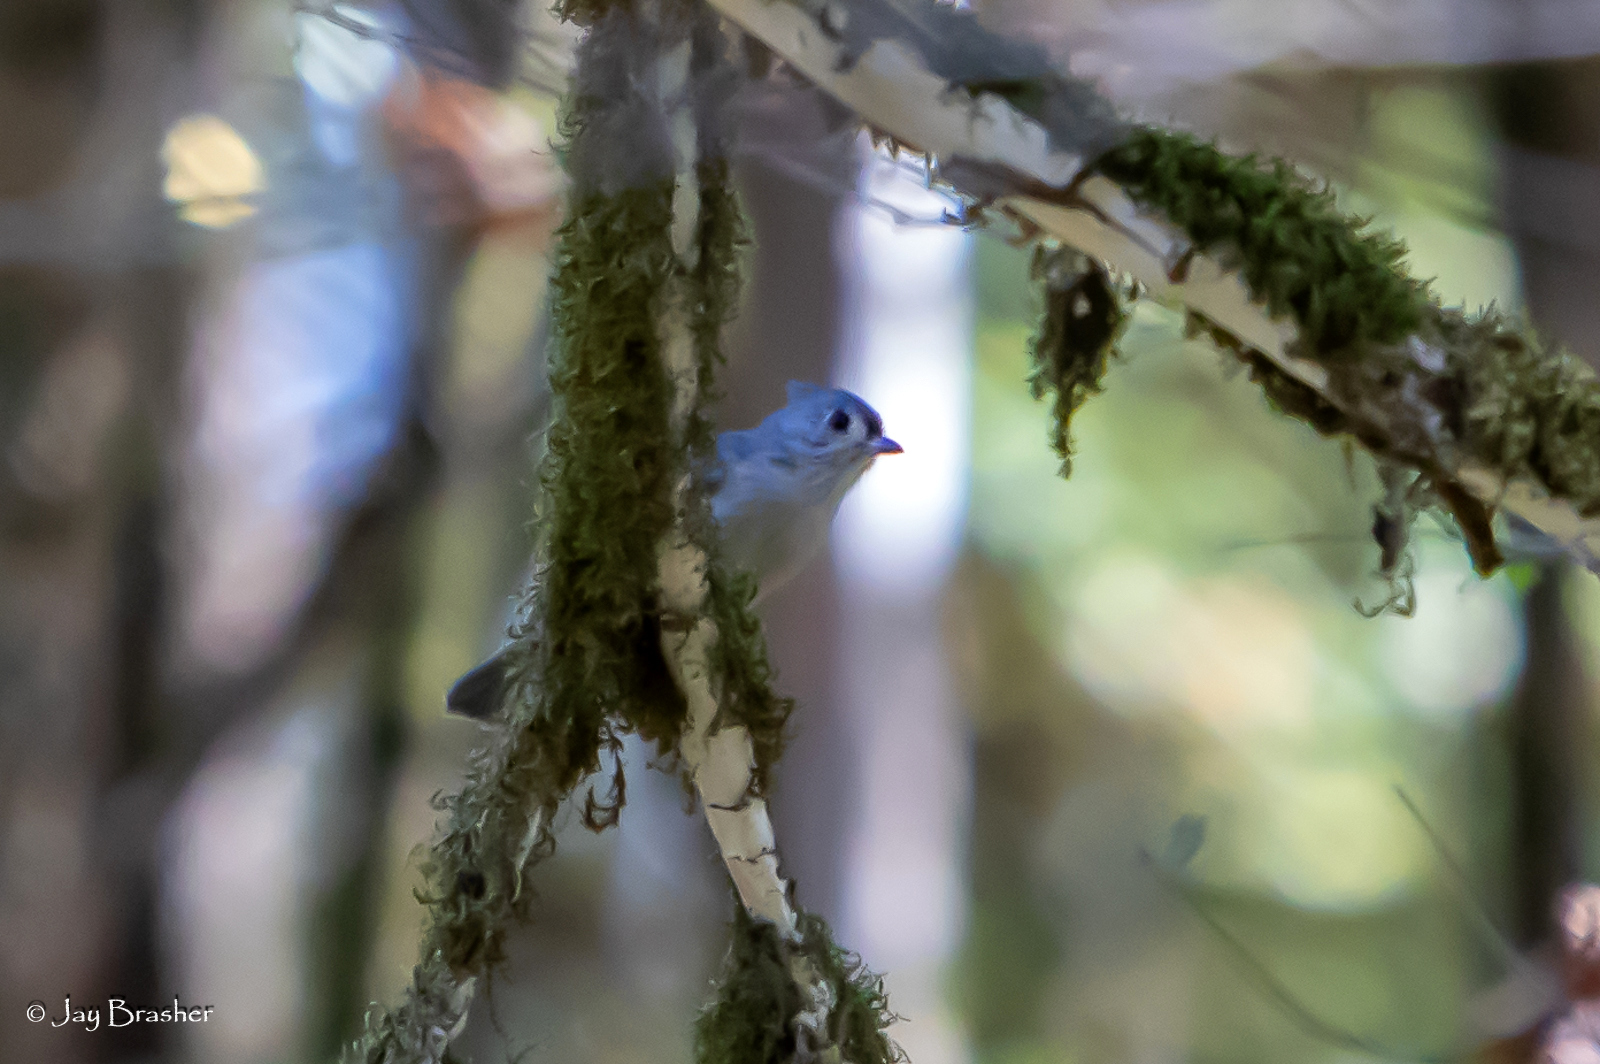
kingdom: Animalia
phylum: Chordata
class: Aves
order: Passeriformes
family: Paridae
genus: Baeolophus
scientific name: Baeolophus bicolor
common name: Tufted titmouse
